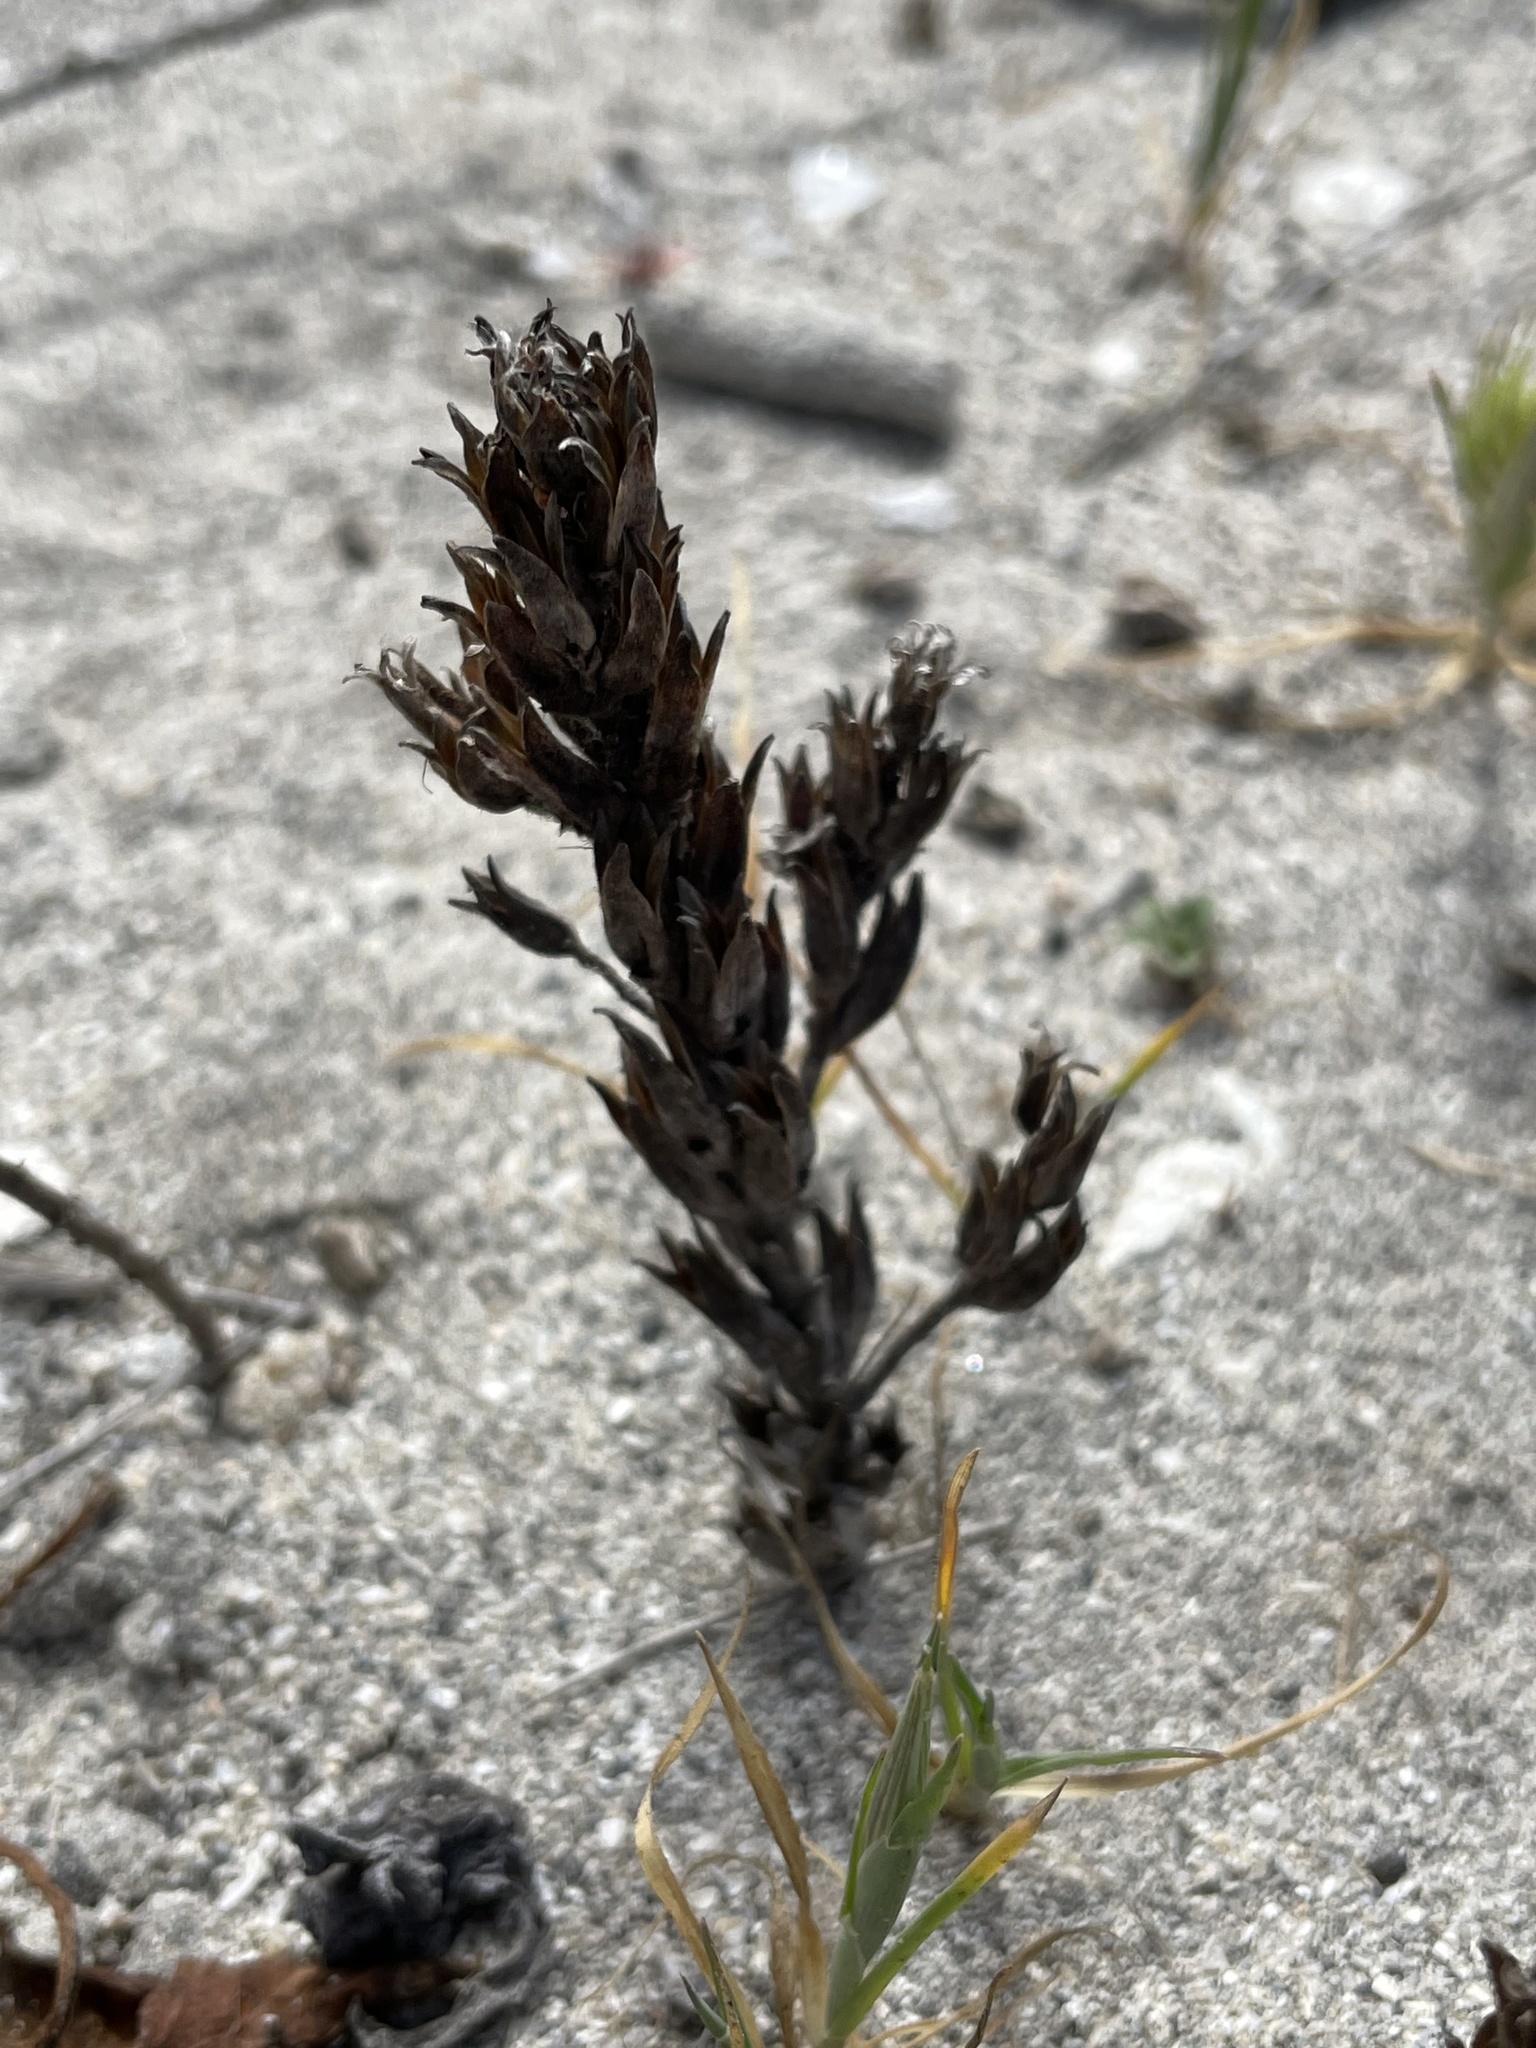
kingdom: Plantae
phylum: Tracheophyta
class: Magnoliopsida
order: Myrtales
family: Onagraceae
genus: Camissoniopsis
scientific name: Camissoniopsis guadalupensis
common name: Guadalupe suncup
